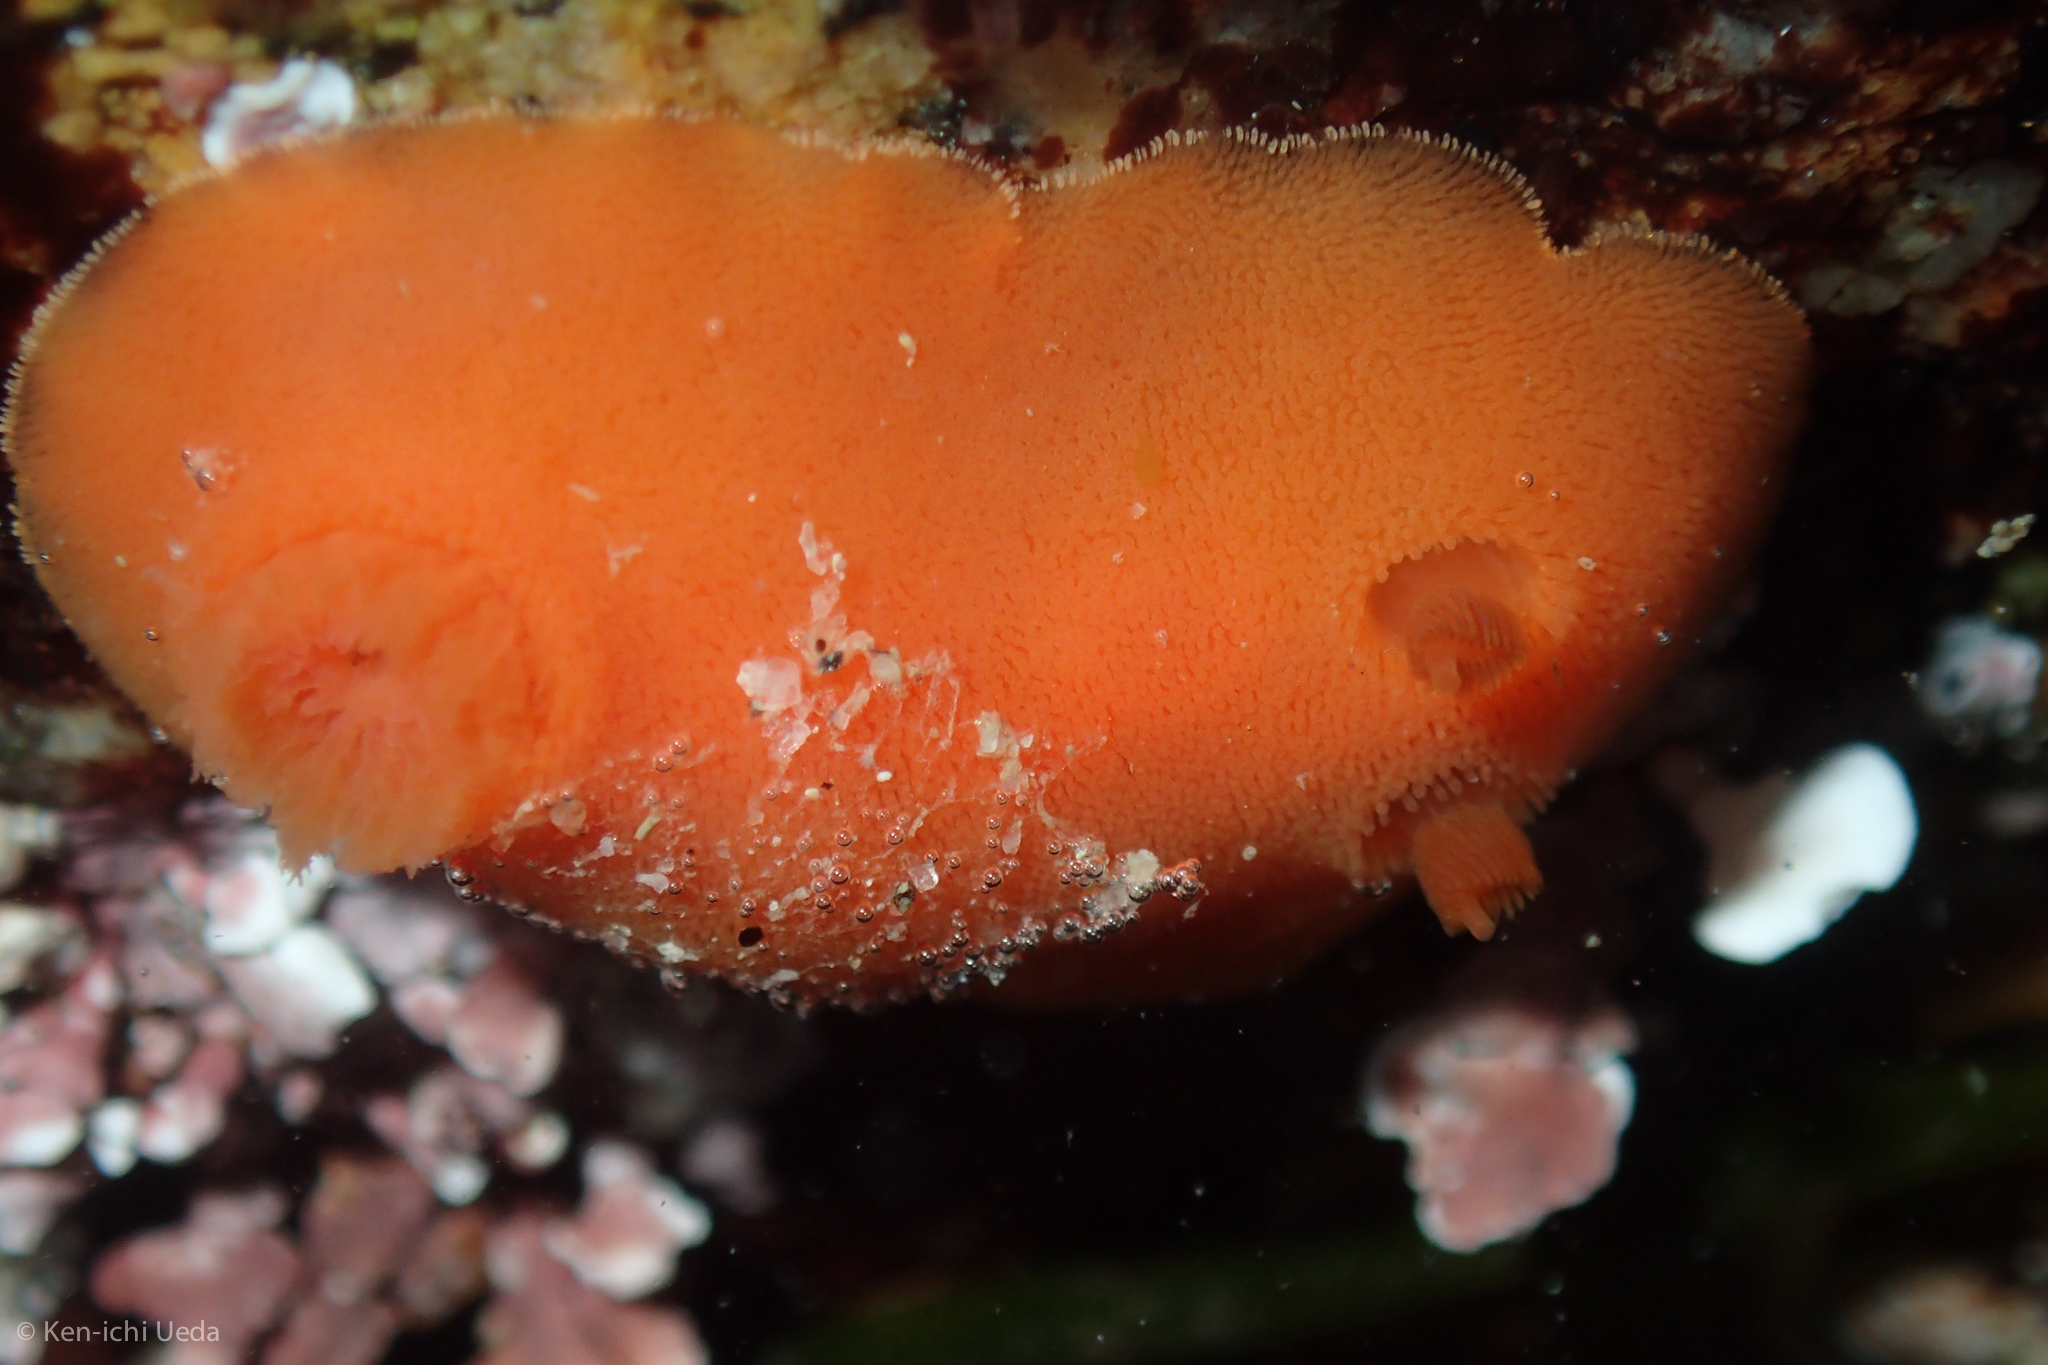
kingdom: Animalia
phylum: Mollusca
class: Gastropoda
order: Nudibranchia
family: Discodorididae
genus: Rostanga
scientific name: Rostanga pulchra
